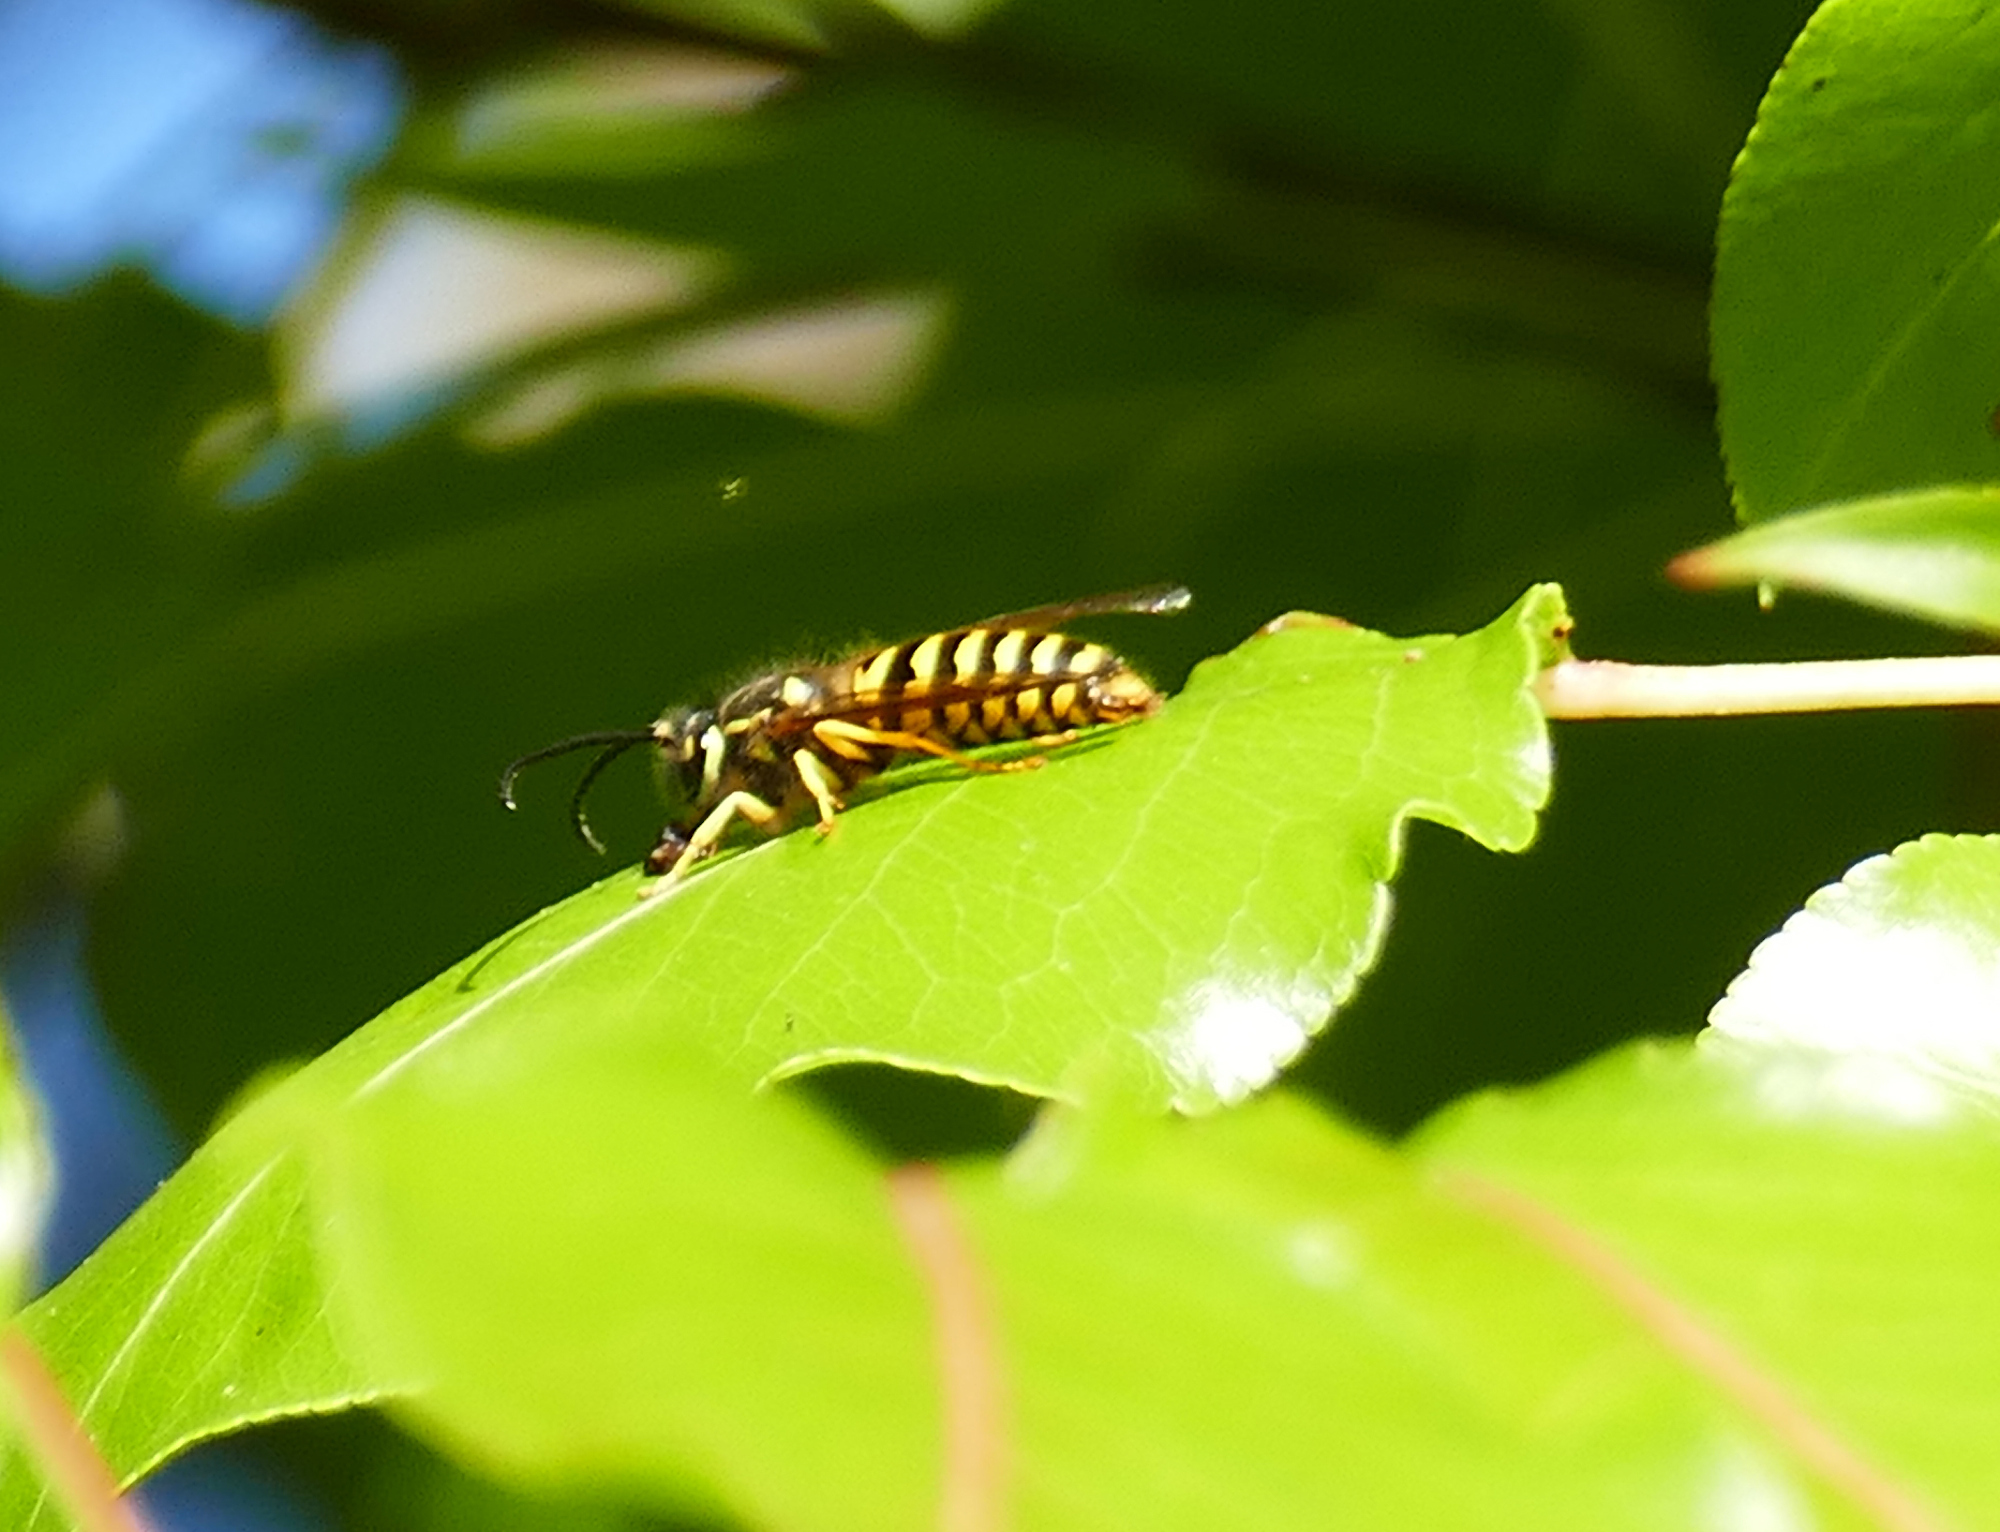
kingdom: Animalia
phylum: Arthropoda
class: Insecta
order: Hymenoptera
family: Vespidae
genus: Vespula
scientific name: Vespula maculifrons
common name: Eastern yellowjacket
